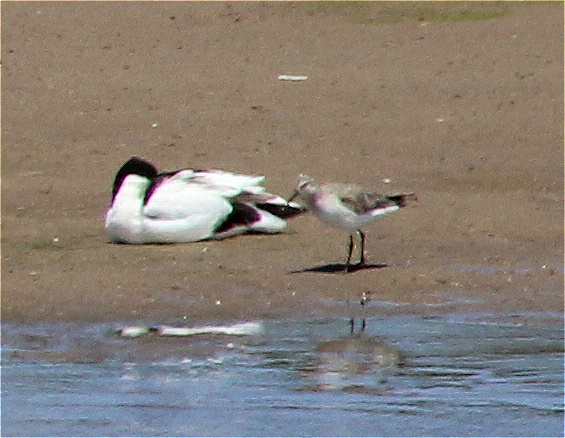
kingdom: Animalia
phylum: Chordata
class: Aves
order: Charadriiformes
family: Scolopacidae
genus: Calidris
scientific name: Calidris ferruginea
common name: Curlew sandpiper
